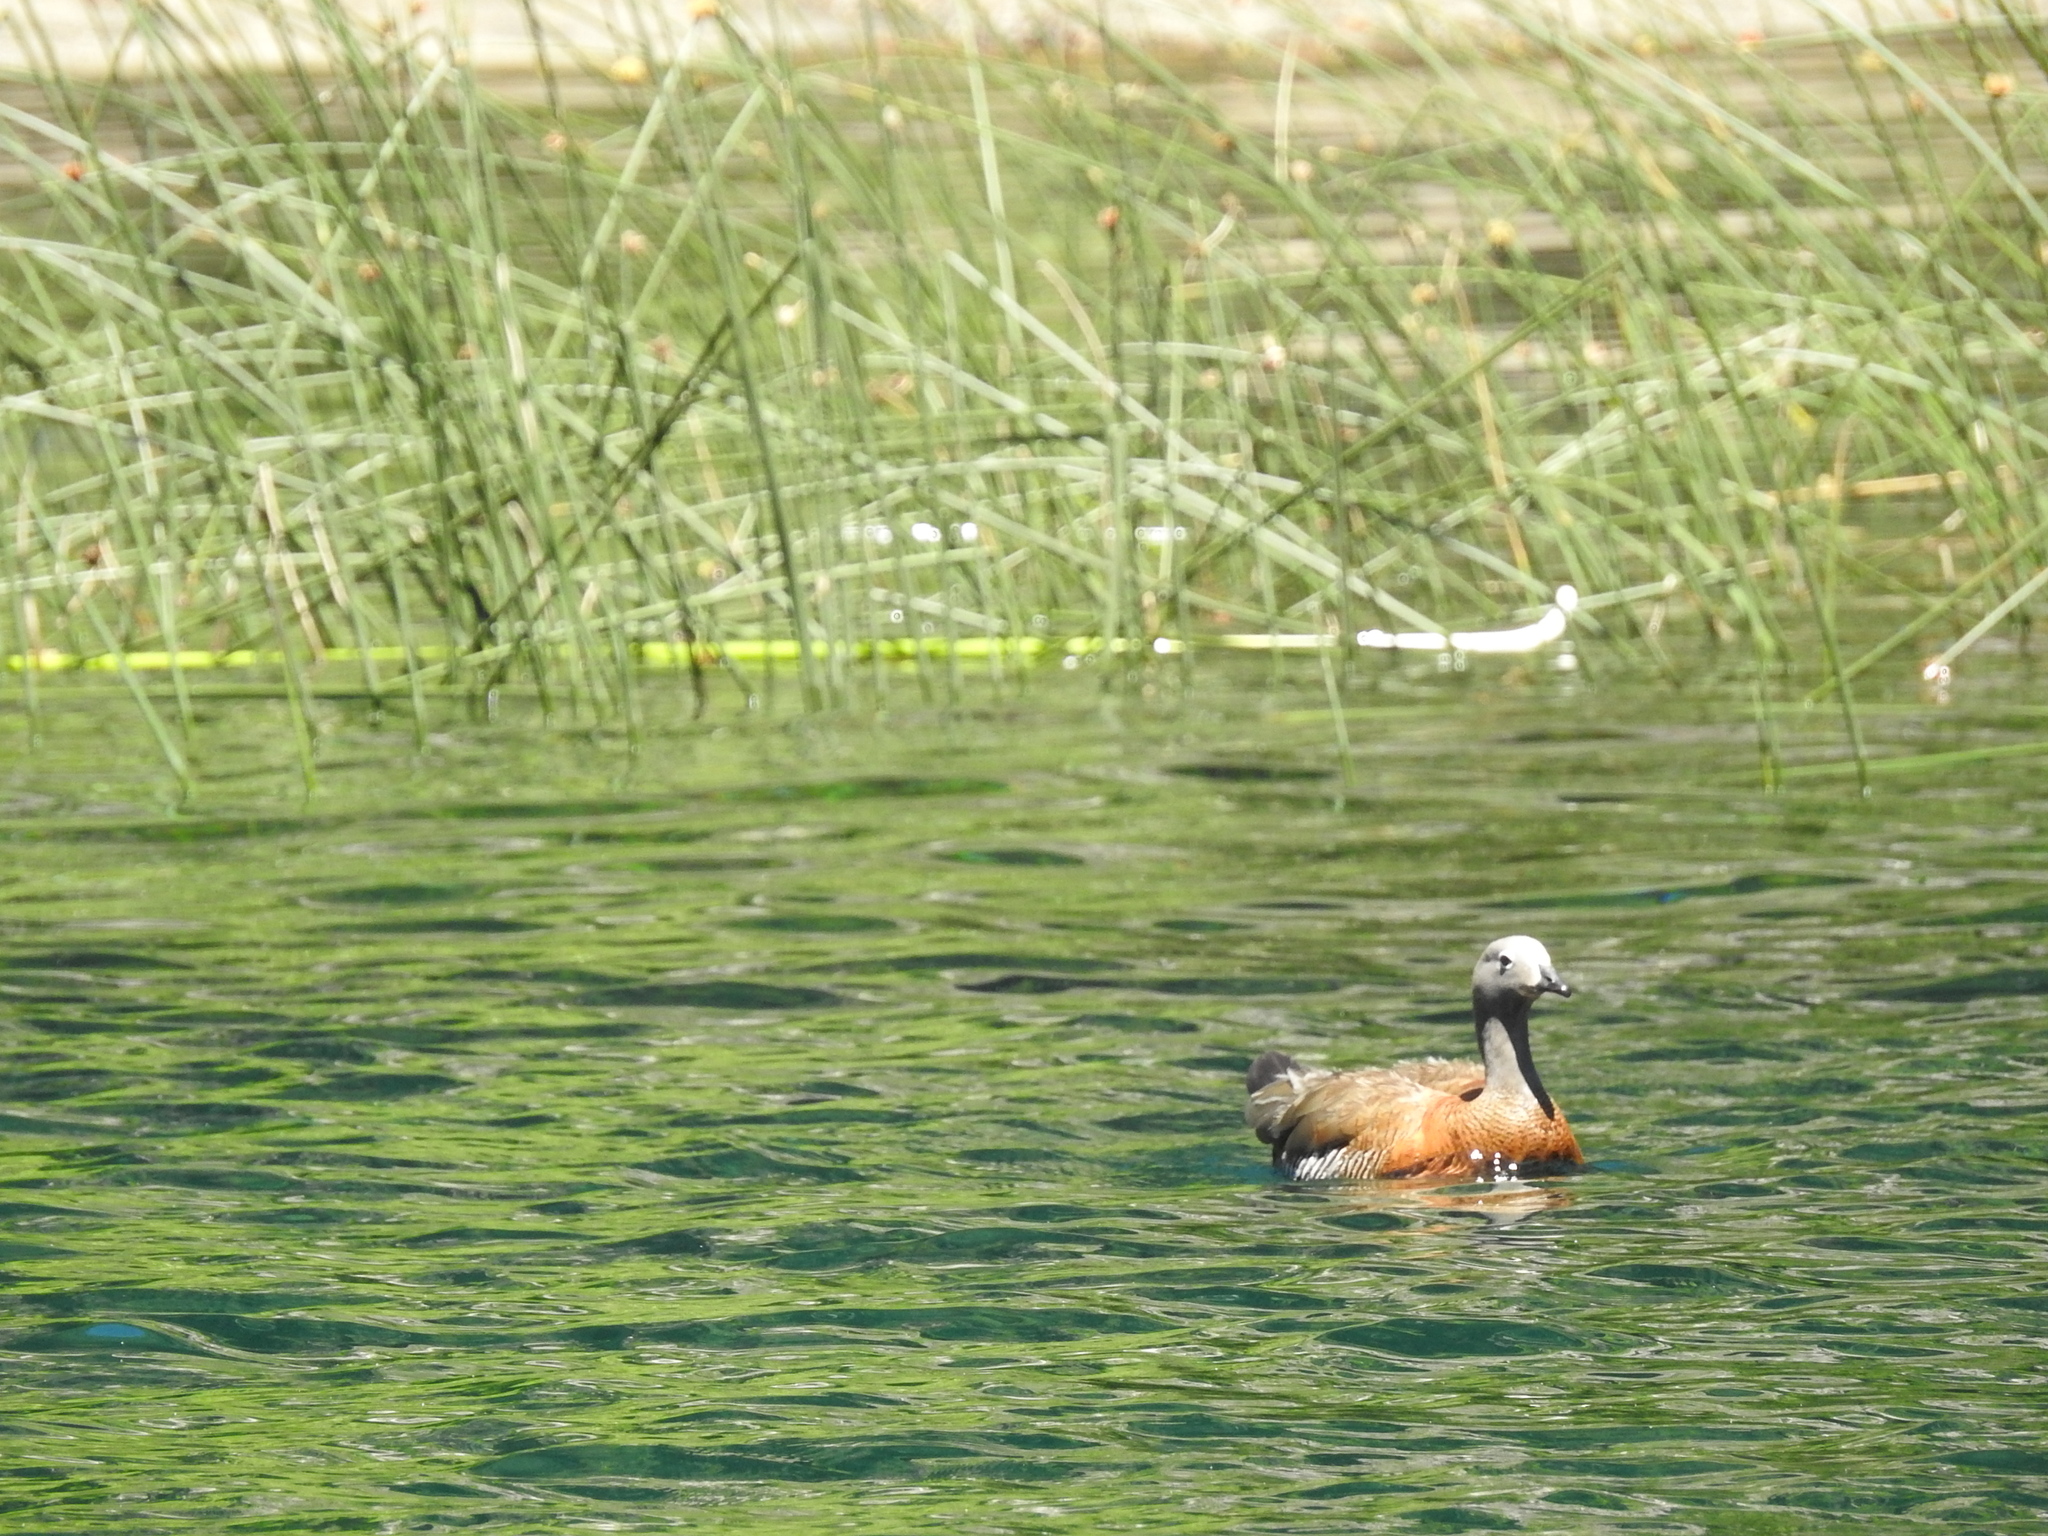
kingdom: Animalia
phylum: Chordata
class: Aves
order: Anseriformes
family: Anatidae
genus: Chloephaga
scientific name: Chloephaga poliocephala
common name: Ashy-headed goose
